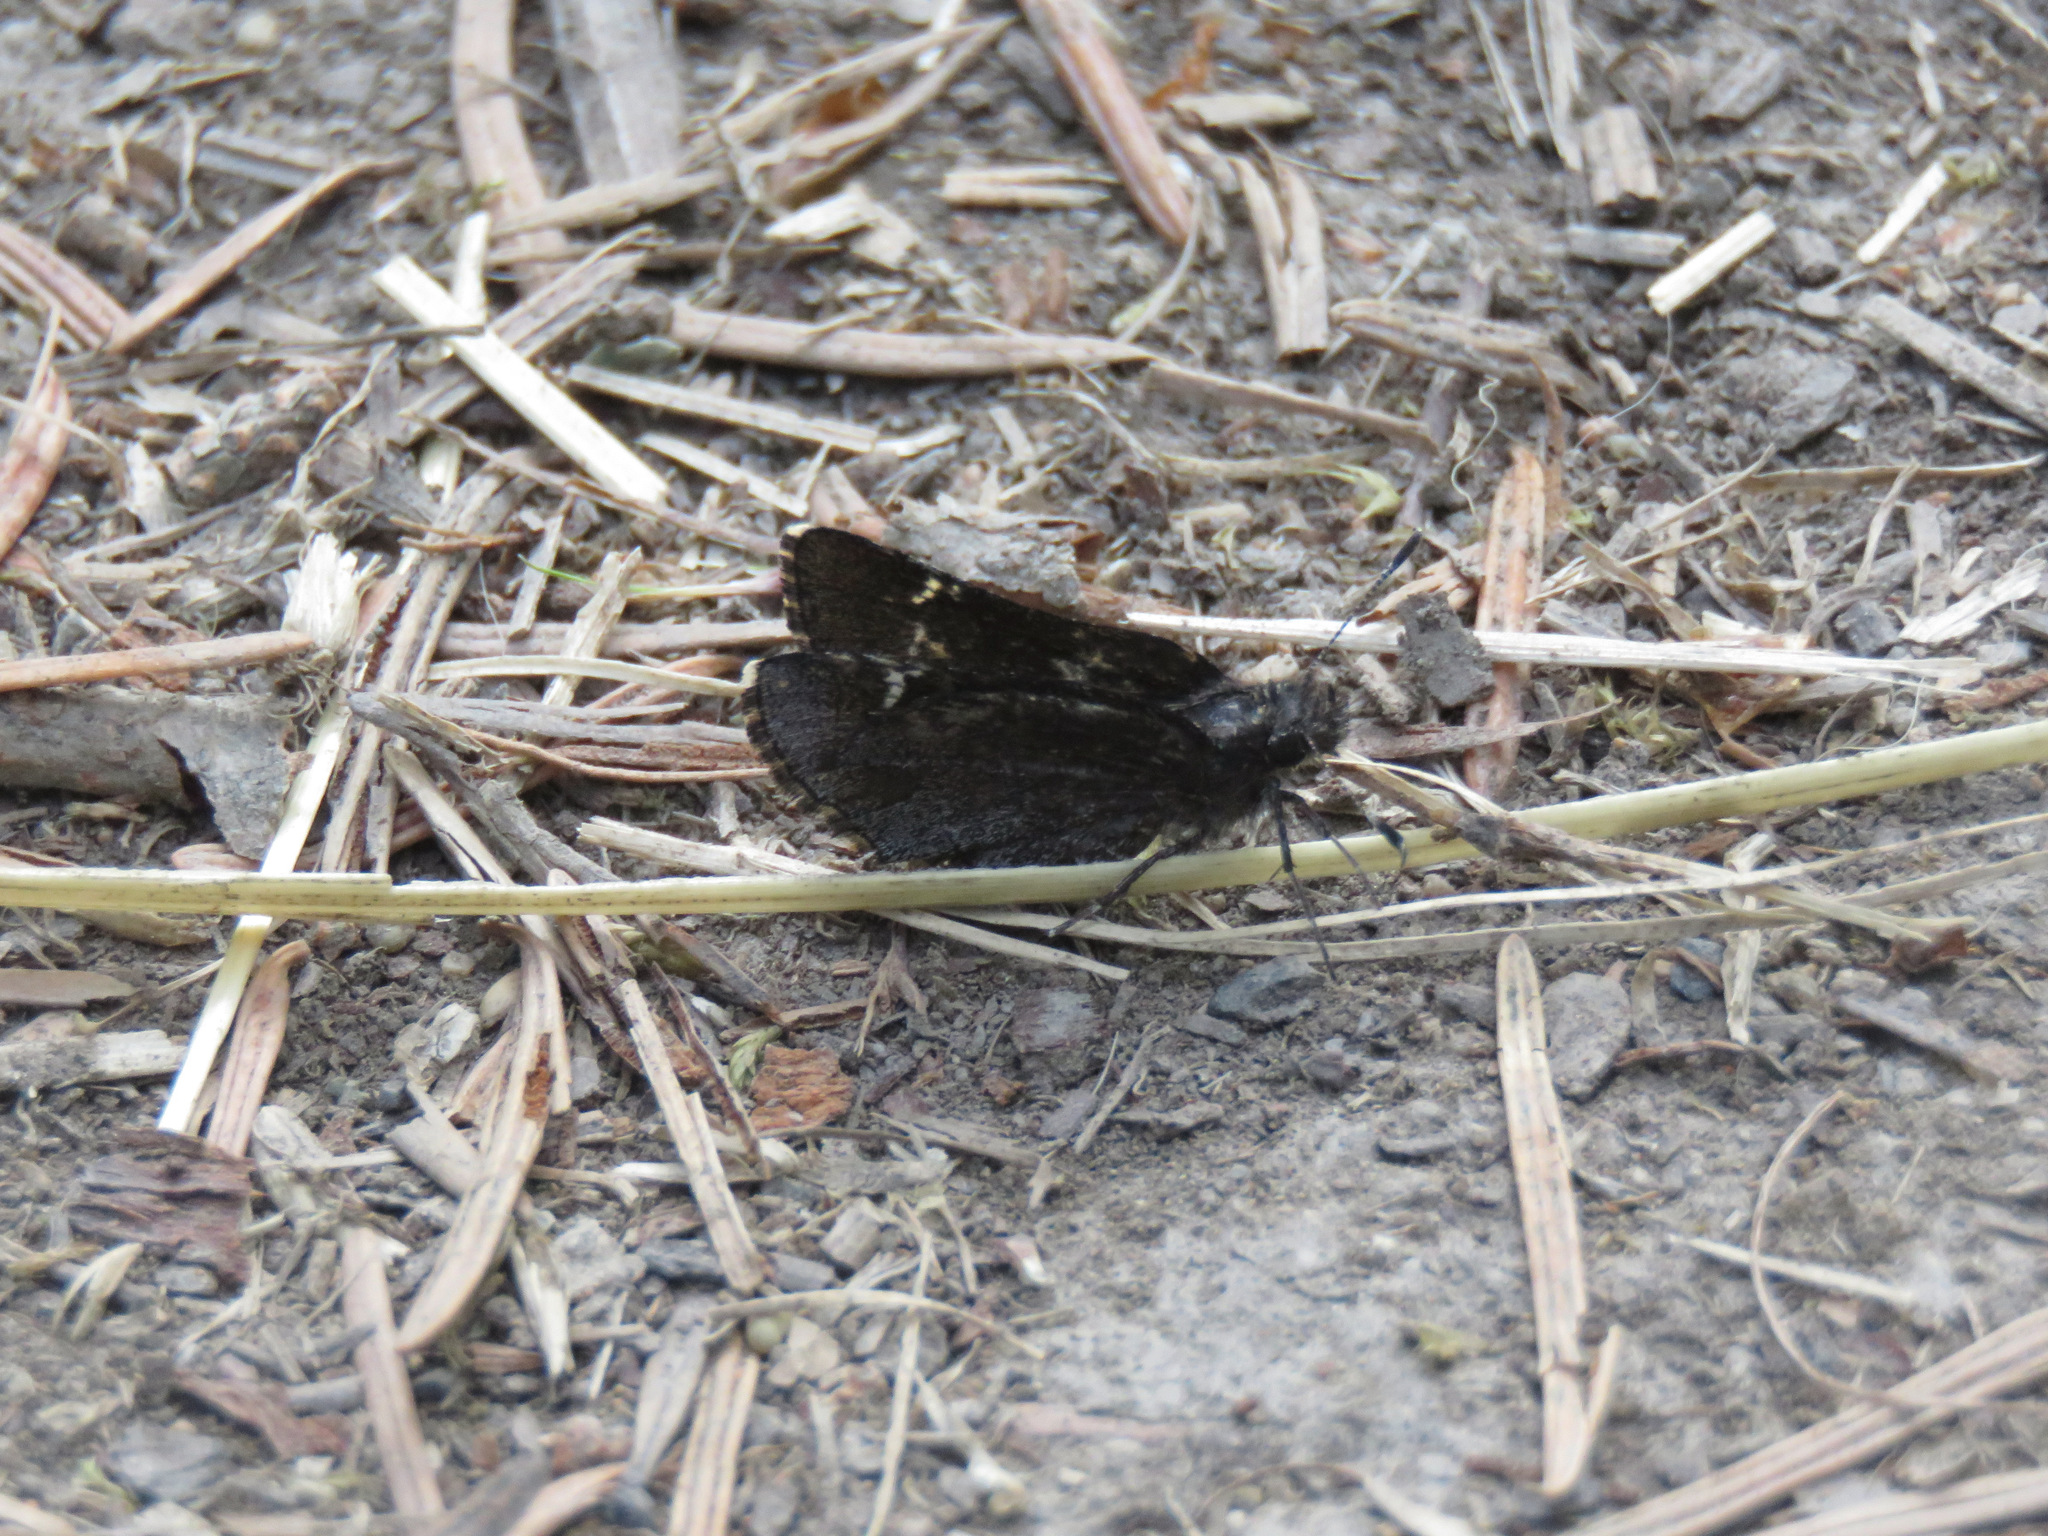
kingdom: Animalia
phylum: Arthropoda
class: Insecta
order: Lepidoptera
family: Hesperiidae
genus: Mastor
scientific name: Mastor vialis
